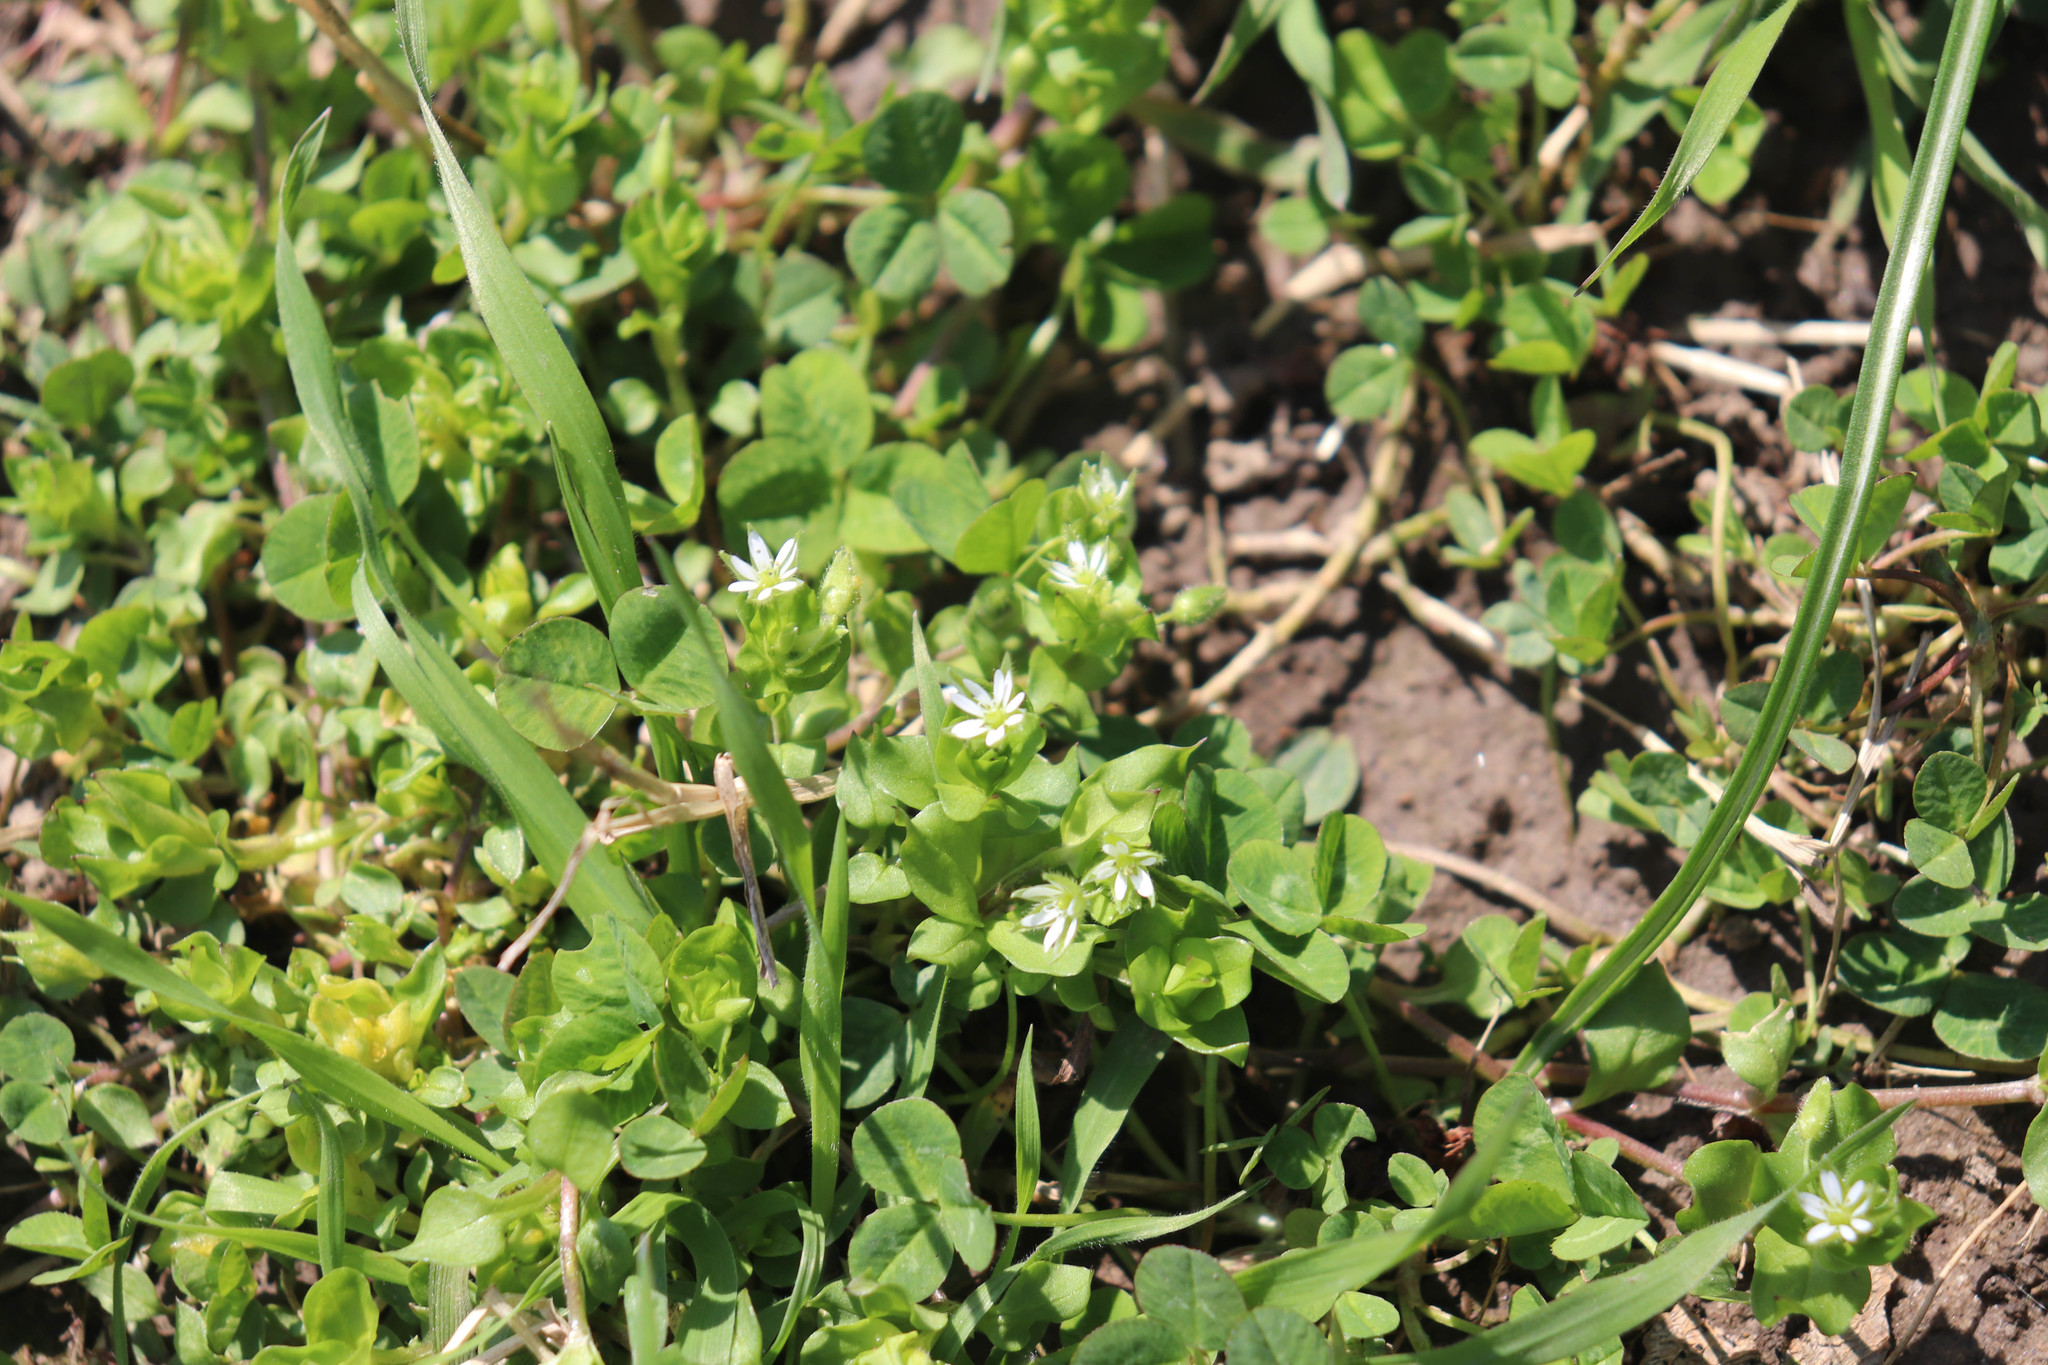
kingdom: Plantae
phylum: Tracheophyta
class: Magnoliopsida
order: Caryophyllales
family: Caryophyllaceae
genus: Stellaria
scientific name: Stellaria media
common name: Common chickweed
